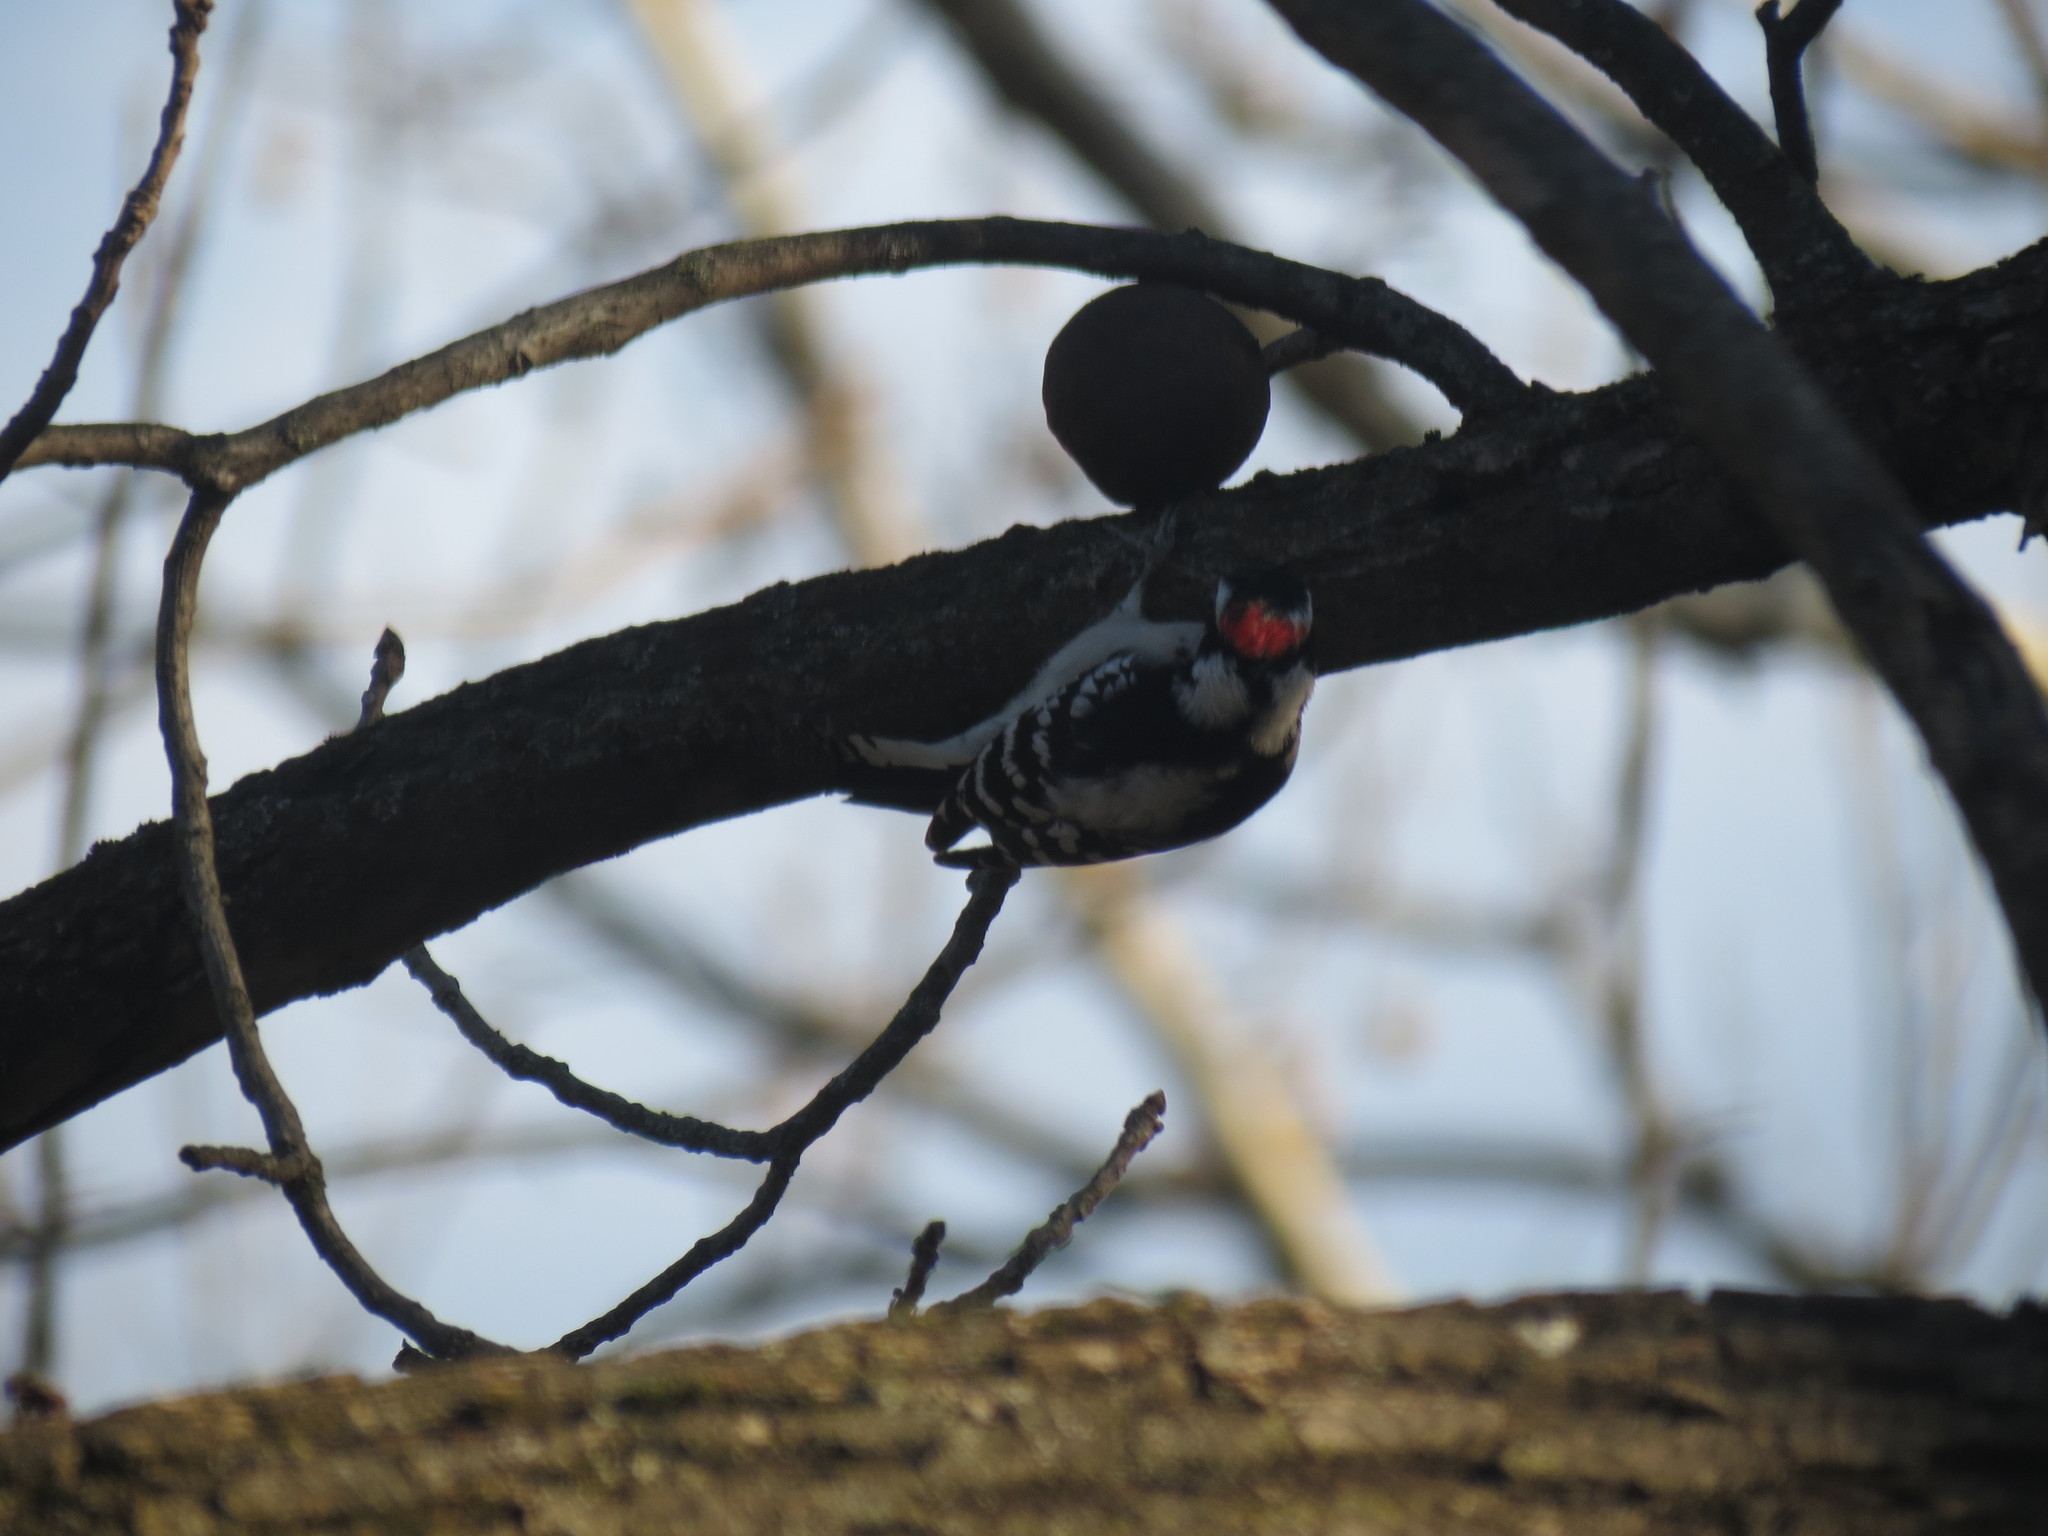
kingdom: Animalia
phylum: Chordata
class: Aves
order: Piciformes
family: Picidae
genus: Dryobates
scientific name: Dryobates pubescens
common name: Downy woodpecker
